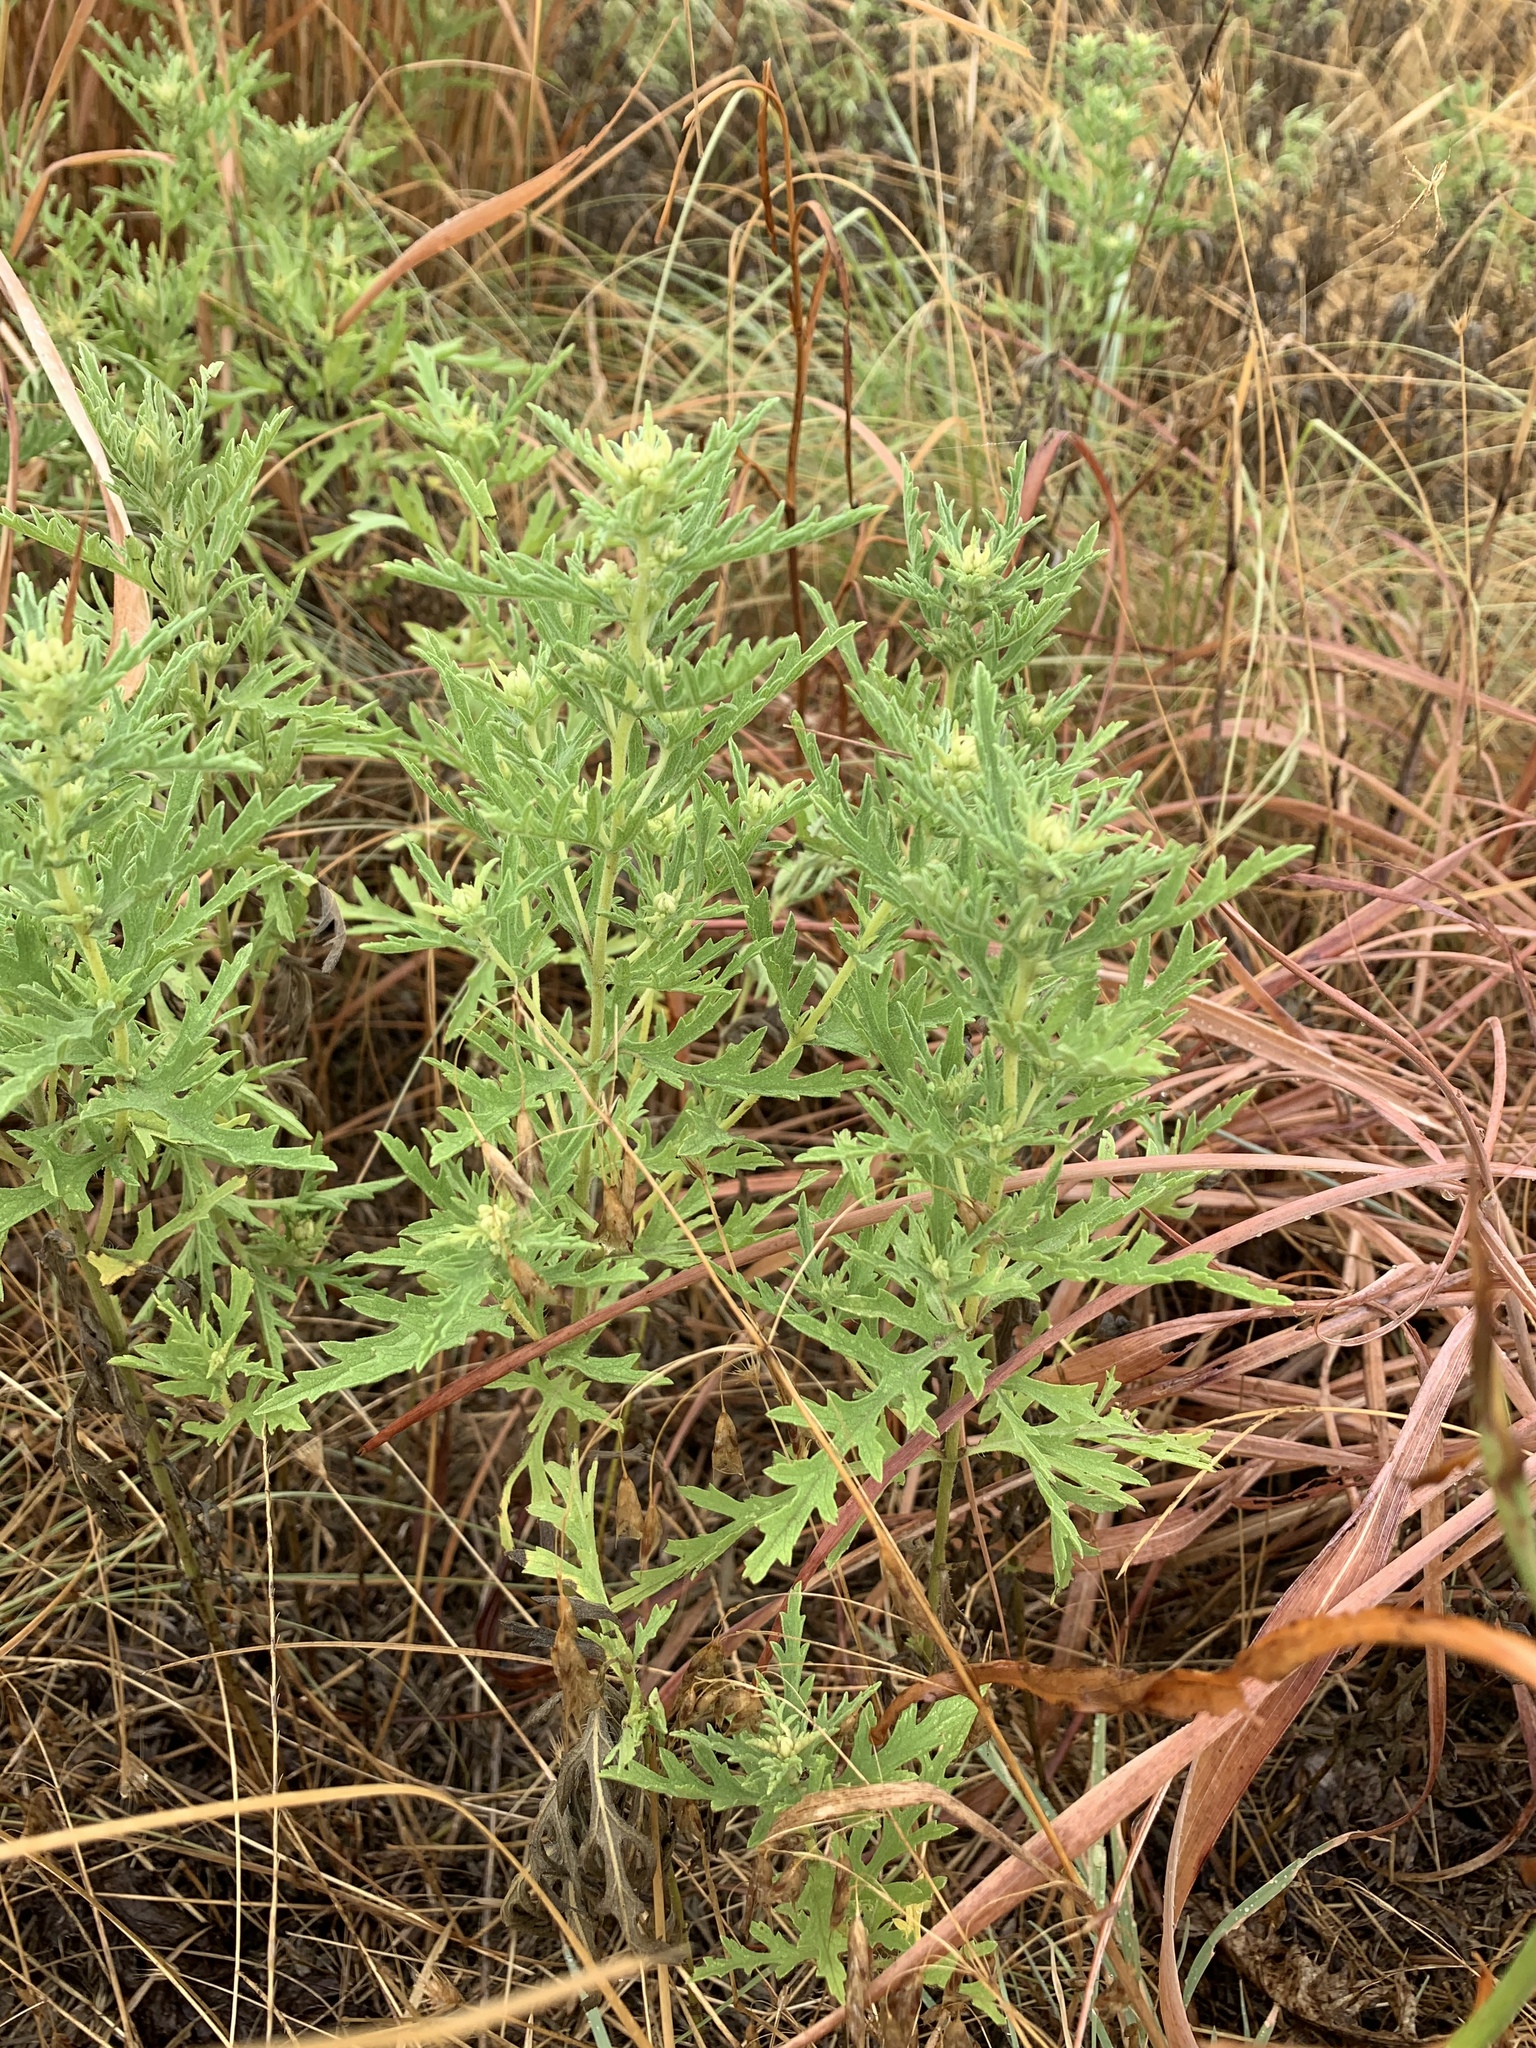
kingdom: Plantae
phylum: Tracheophyta
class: Magnoliopsida
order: Asterales
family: Asteraceae
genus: Ambrosia
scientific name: Ambrosia psilostachya
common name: Perennial ragweed
